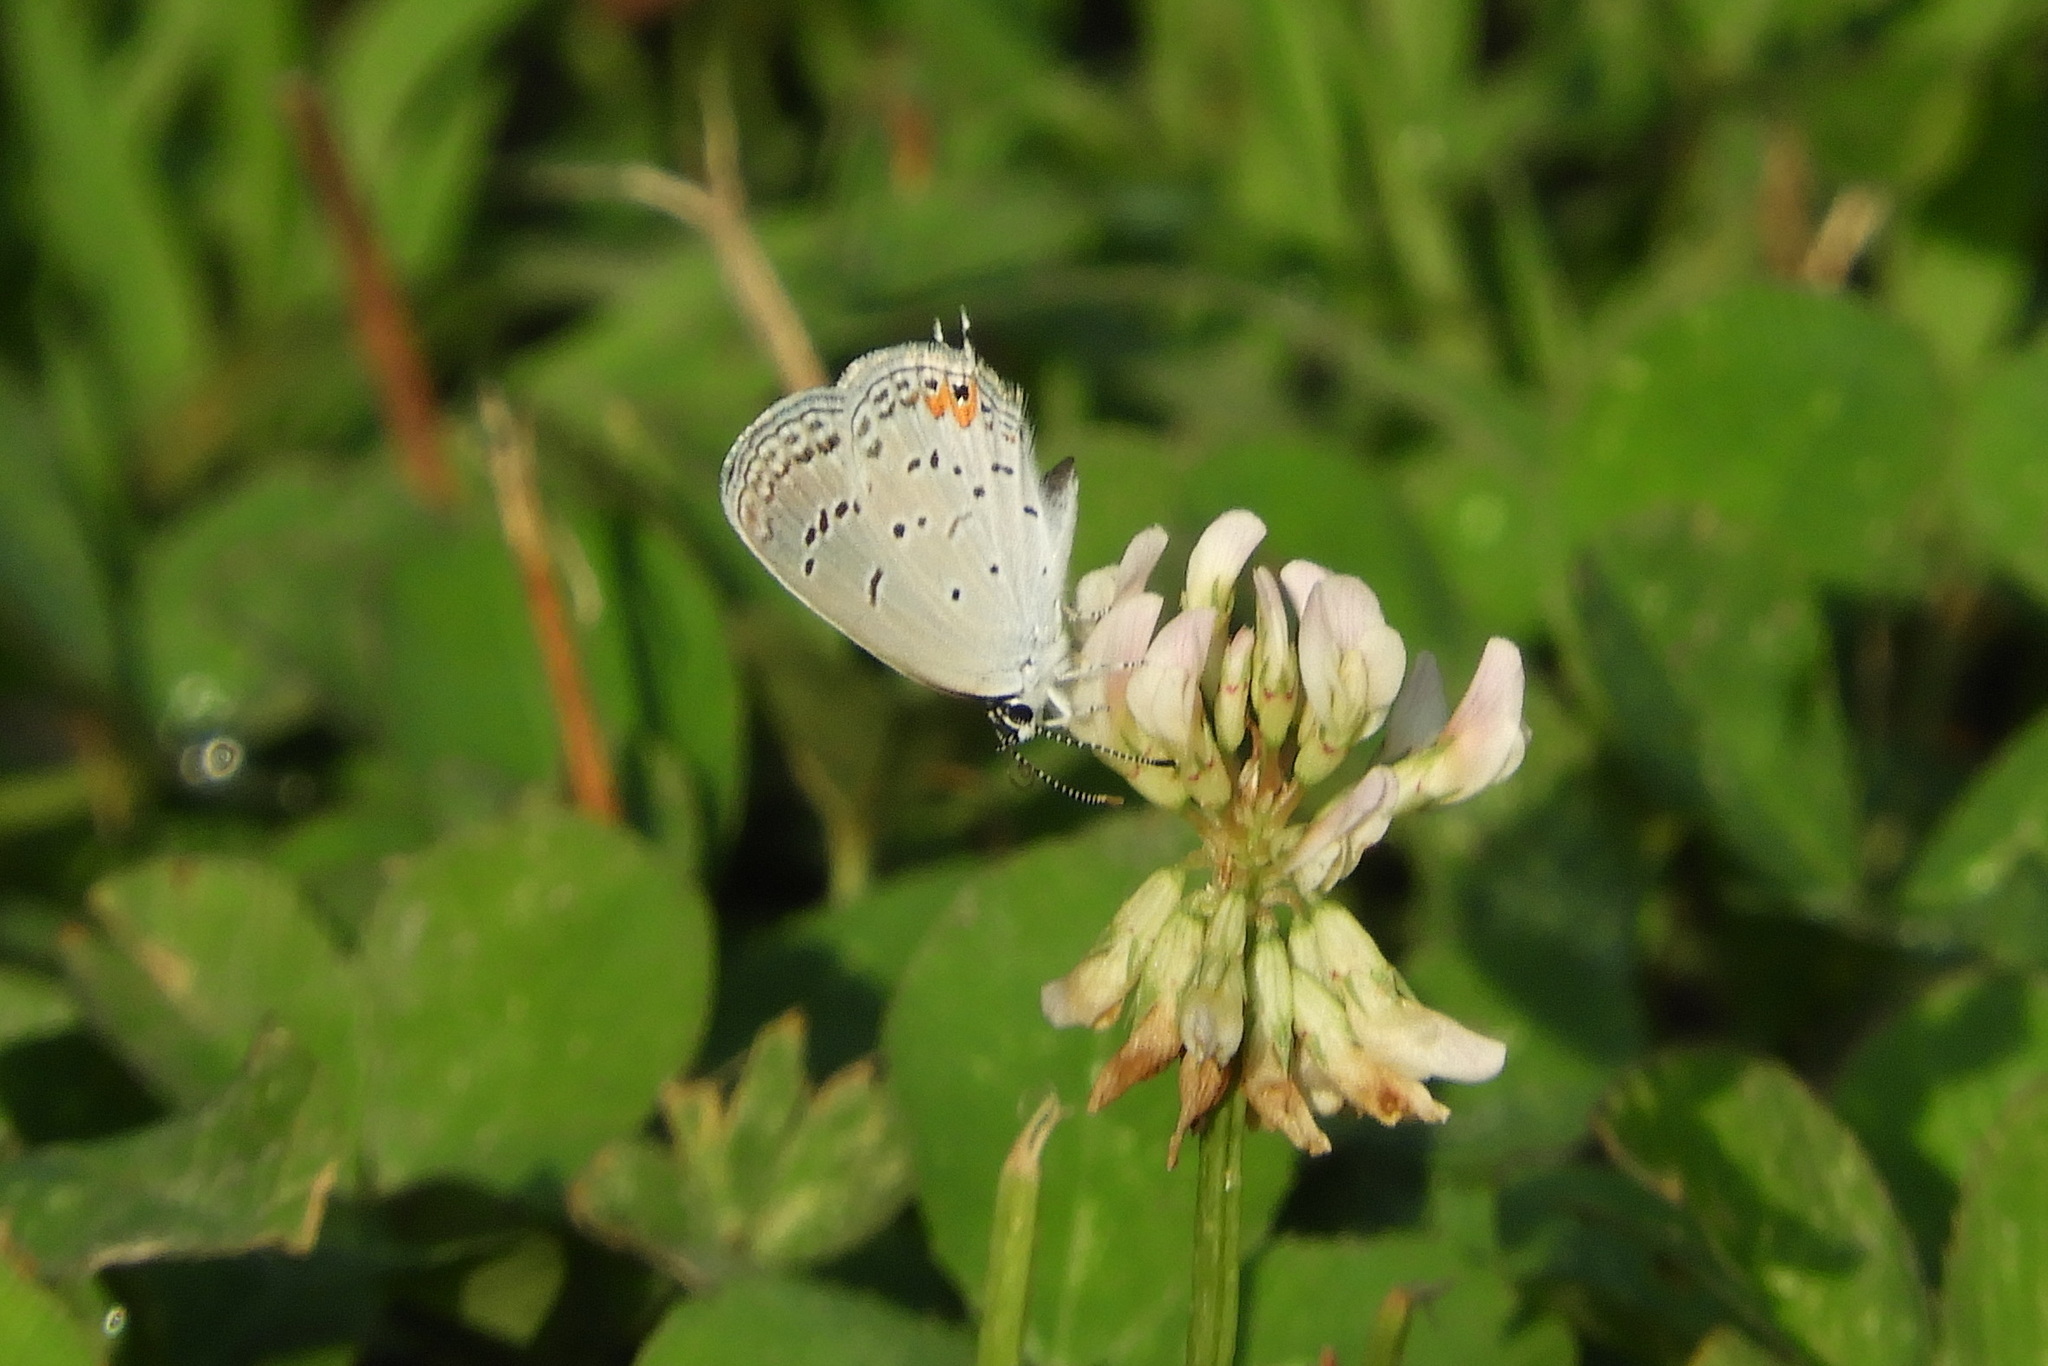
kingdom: Animalia
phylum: Arthropoda
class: Insecta
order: Lepidoptera
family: Lycaenidae
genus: Elkalyce
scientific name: Elkalyce comyntas
